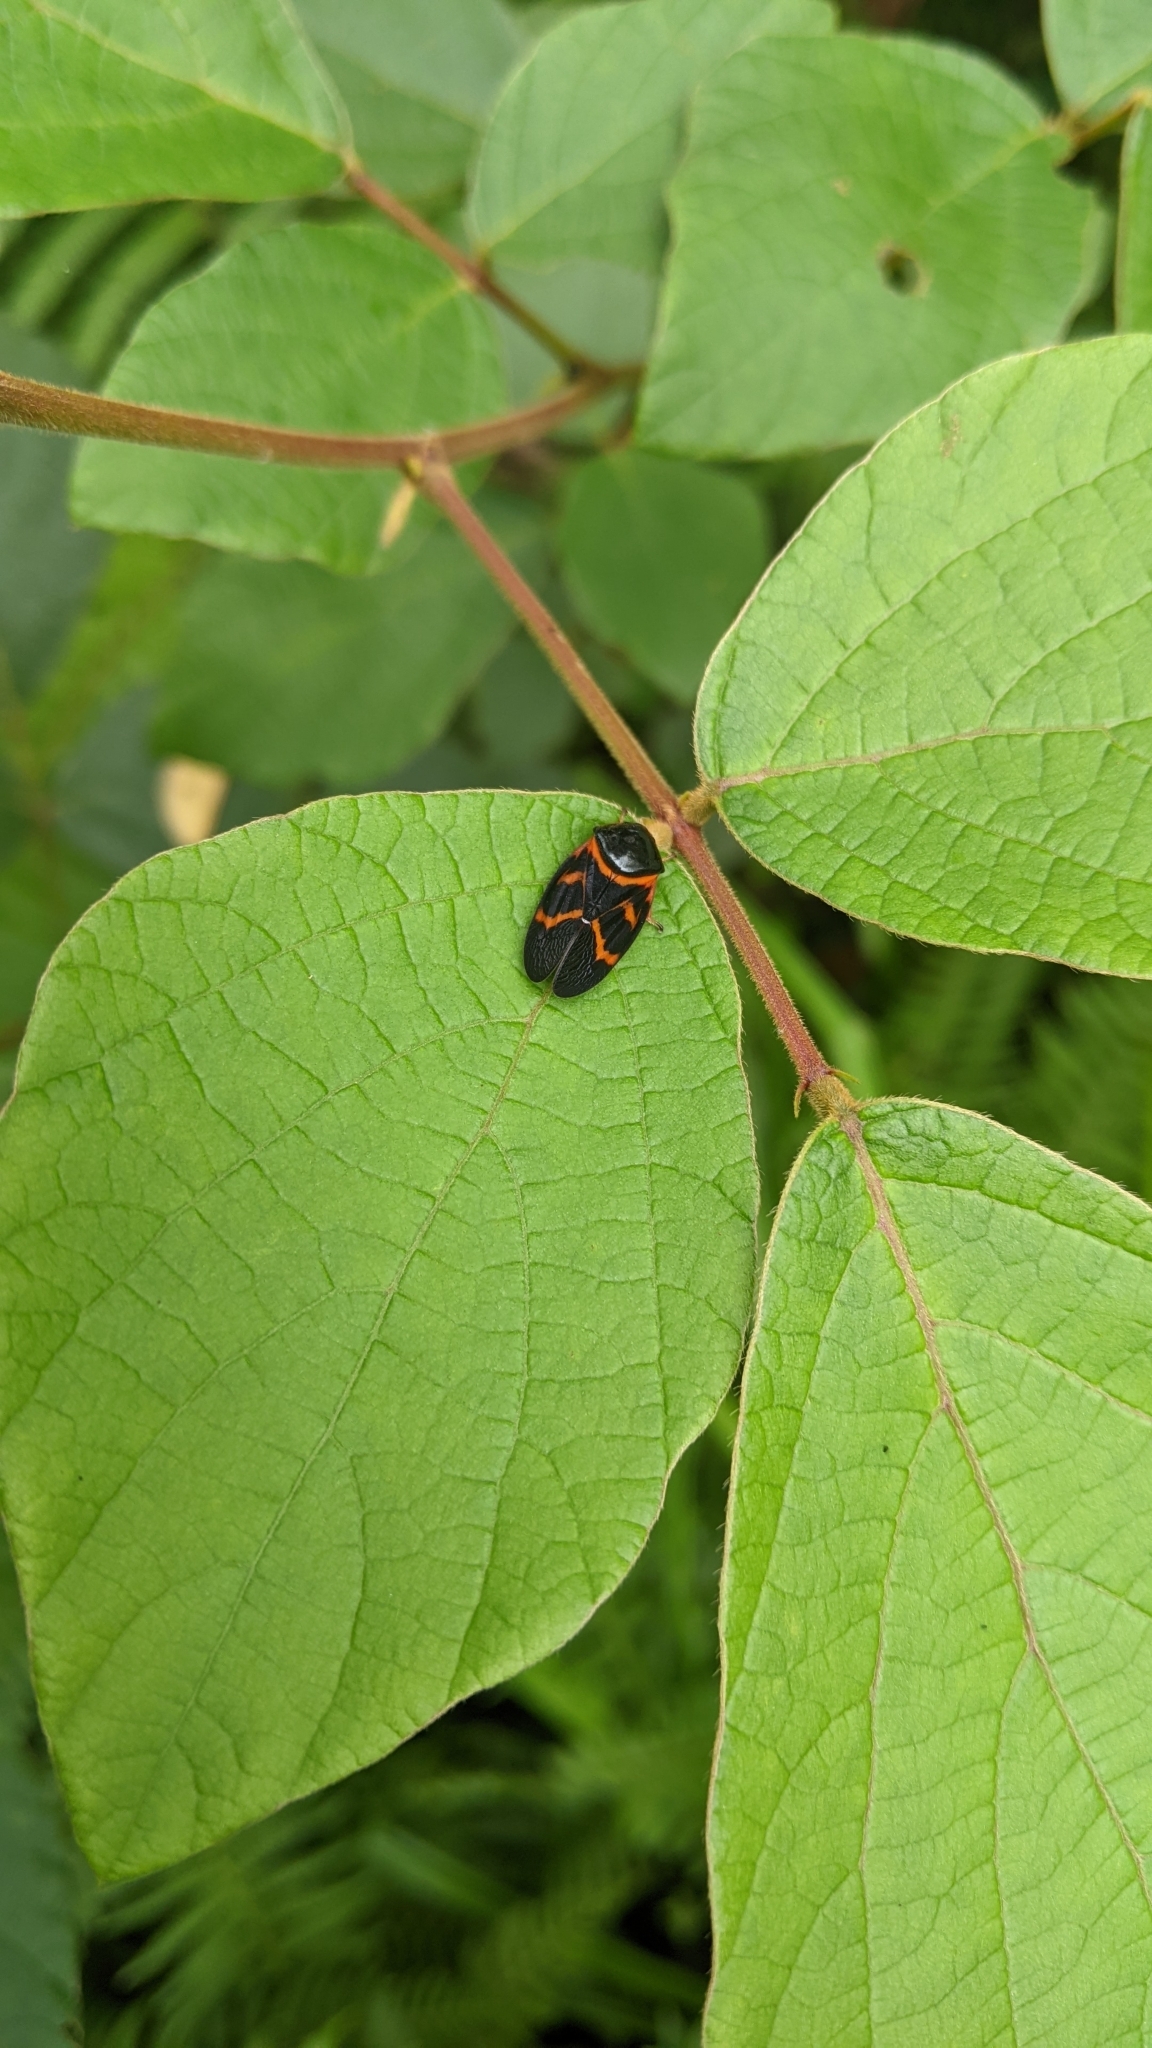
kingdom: Animalia
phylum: Arthropoda
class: Insecta
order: Hemiptera
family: Cercopidae
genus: Okiscarta
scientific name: Okiscarta uchidae
